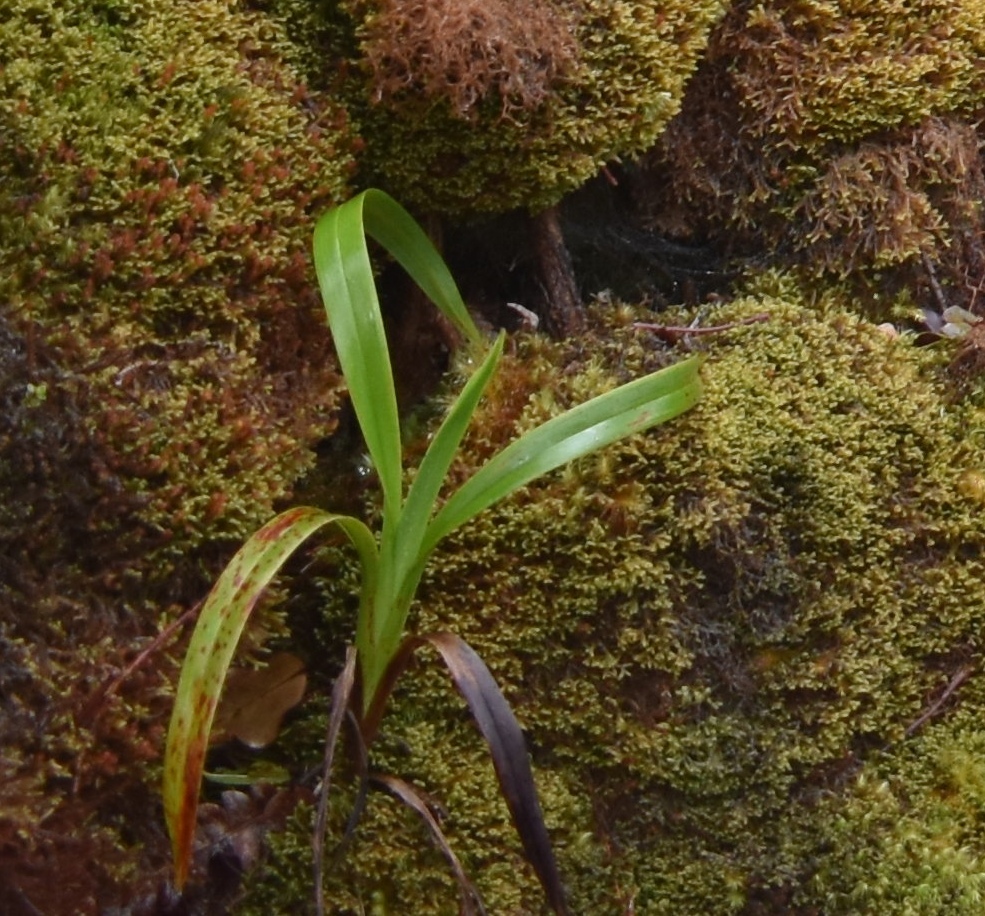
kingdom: Plantae
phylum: Tracheophyta
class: Liliopsida
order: Asparagales
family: Asphodelaceae
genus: Dianella
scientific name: Dianella sandwicensis
